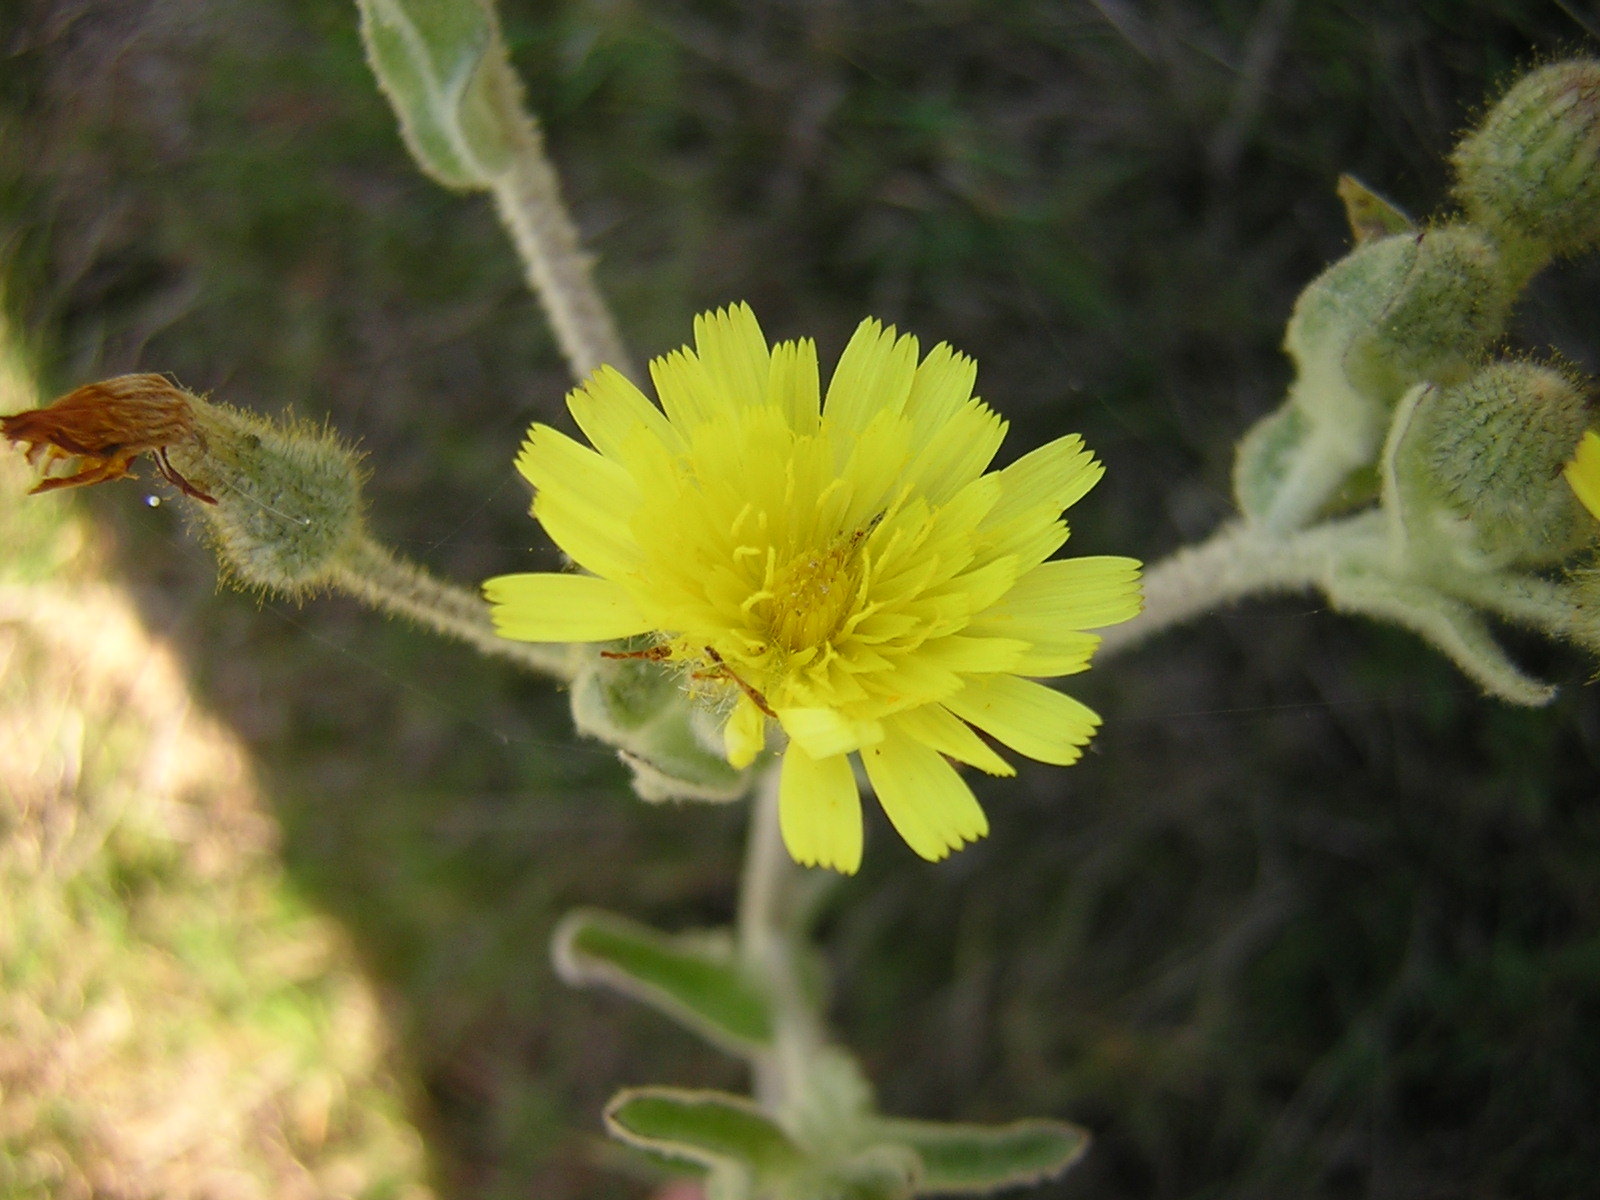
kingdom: Plantae
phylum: Tracheophyta
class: Magnoliopsida
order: Asterales
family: Asteraceae
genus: Andryala
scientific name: Andryala integrifolia
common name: Common andryala
